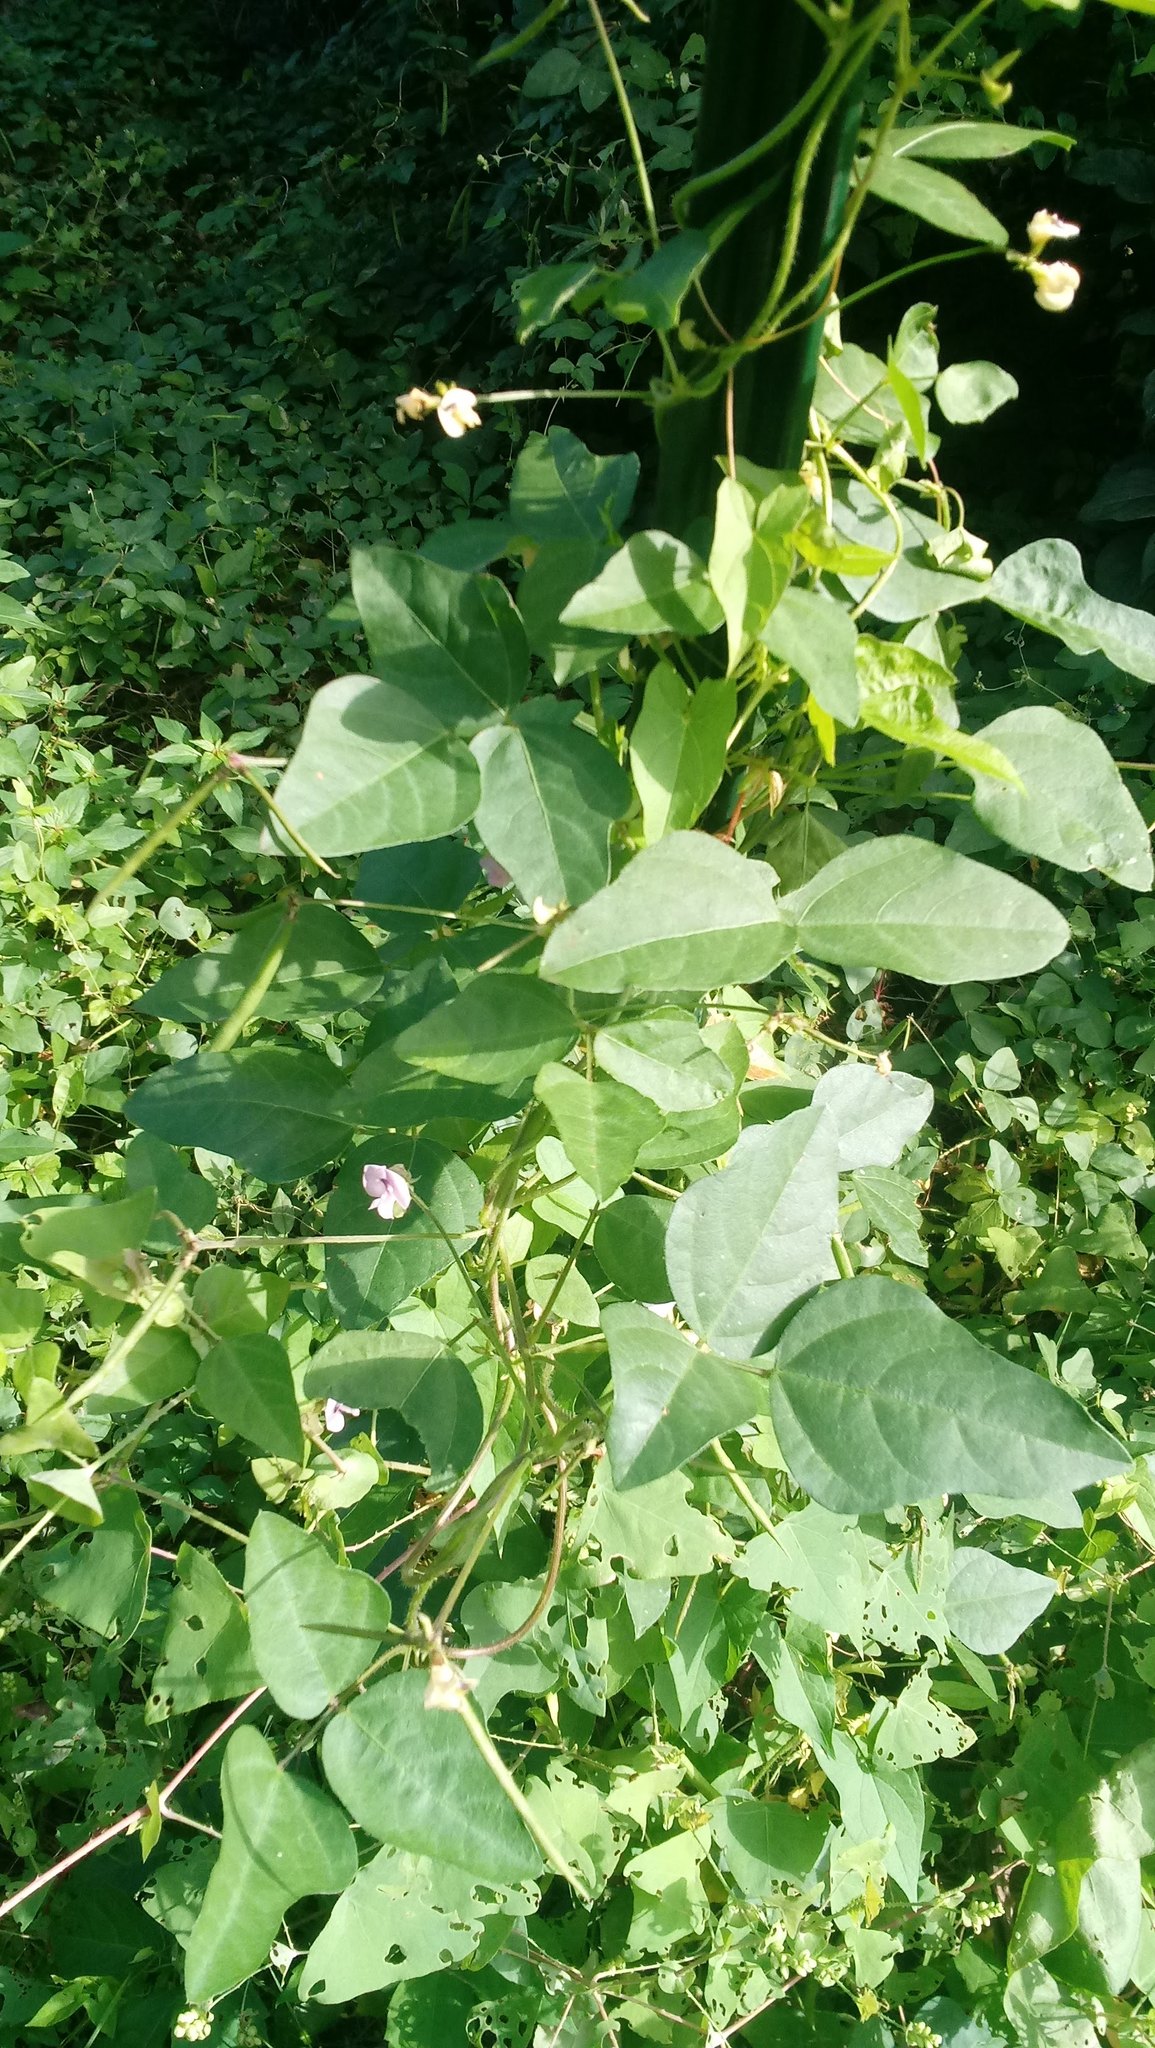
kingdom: Plantae
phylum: Tracheophyta
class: Magnoliopsida
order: Fabales
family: Fabaceae
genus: Strophostyles
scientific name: Strophostyles helvola
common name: Trailing wild bean
